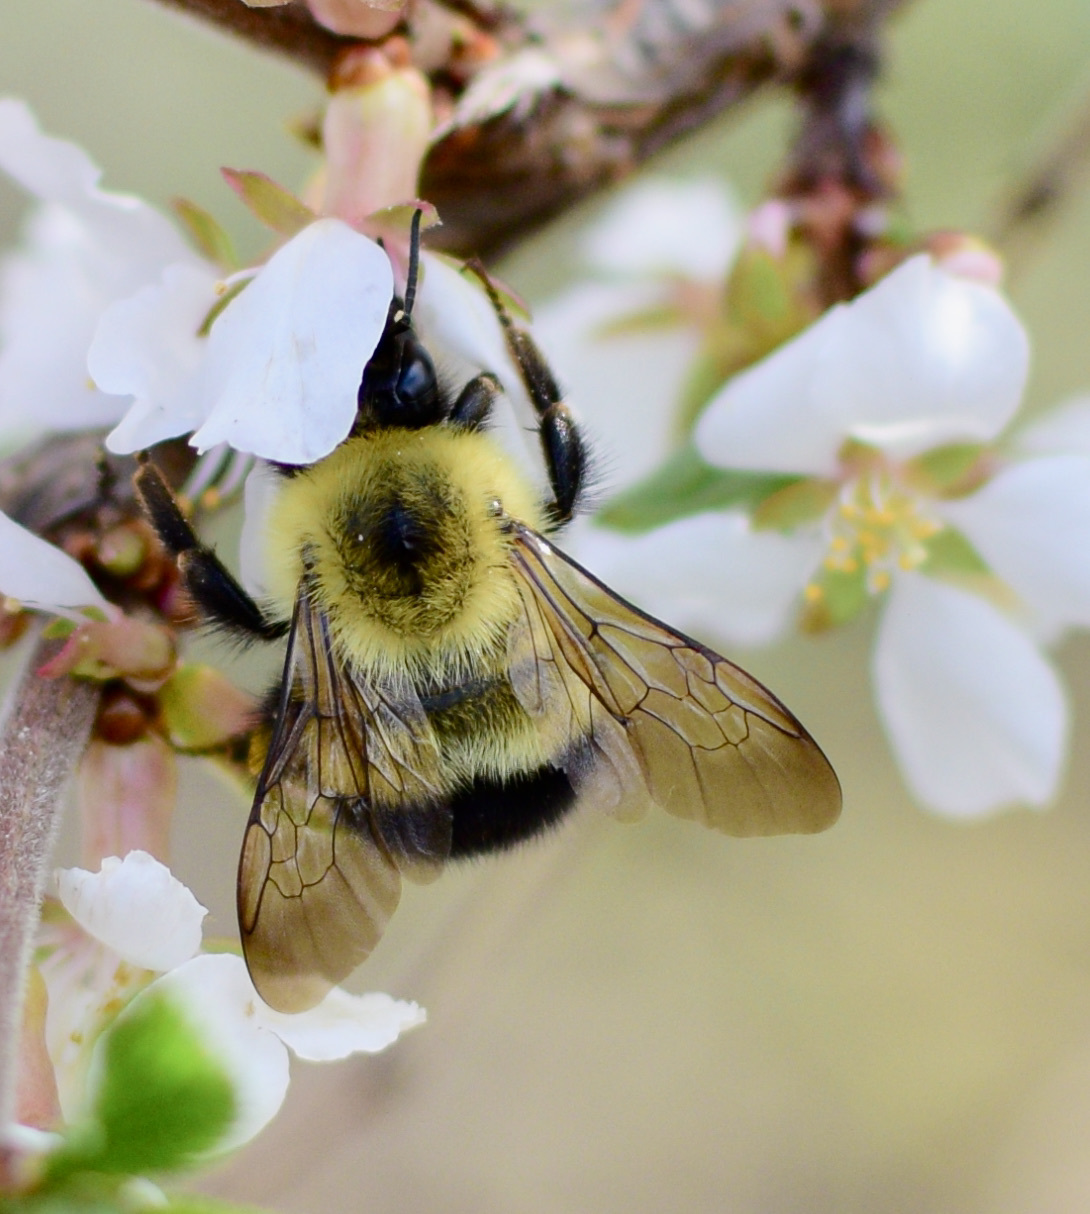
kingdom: Animalia
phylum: Arthropoda
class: Insecta
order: Hymenoptera
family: Apidae
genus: Pyrobombus
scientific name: Pyrobombus
